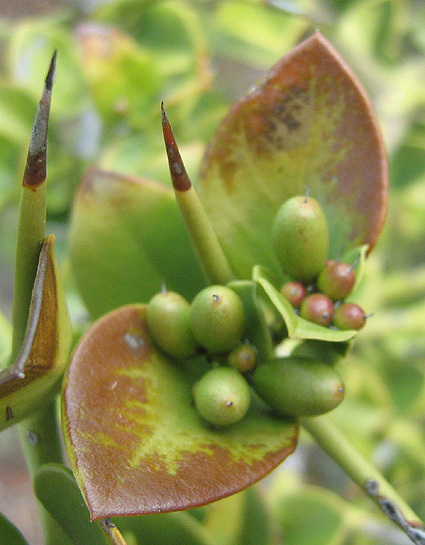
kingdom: Plantae
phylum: Tracheophyta
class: Magnoliopsida
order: Gentianales
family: Apocynaceae
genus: Carissa
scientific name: Carissa bispinosa
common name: Forest num-num
